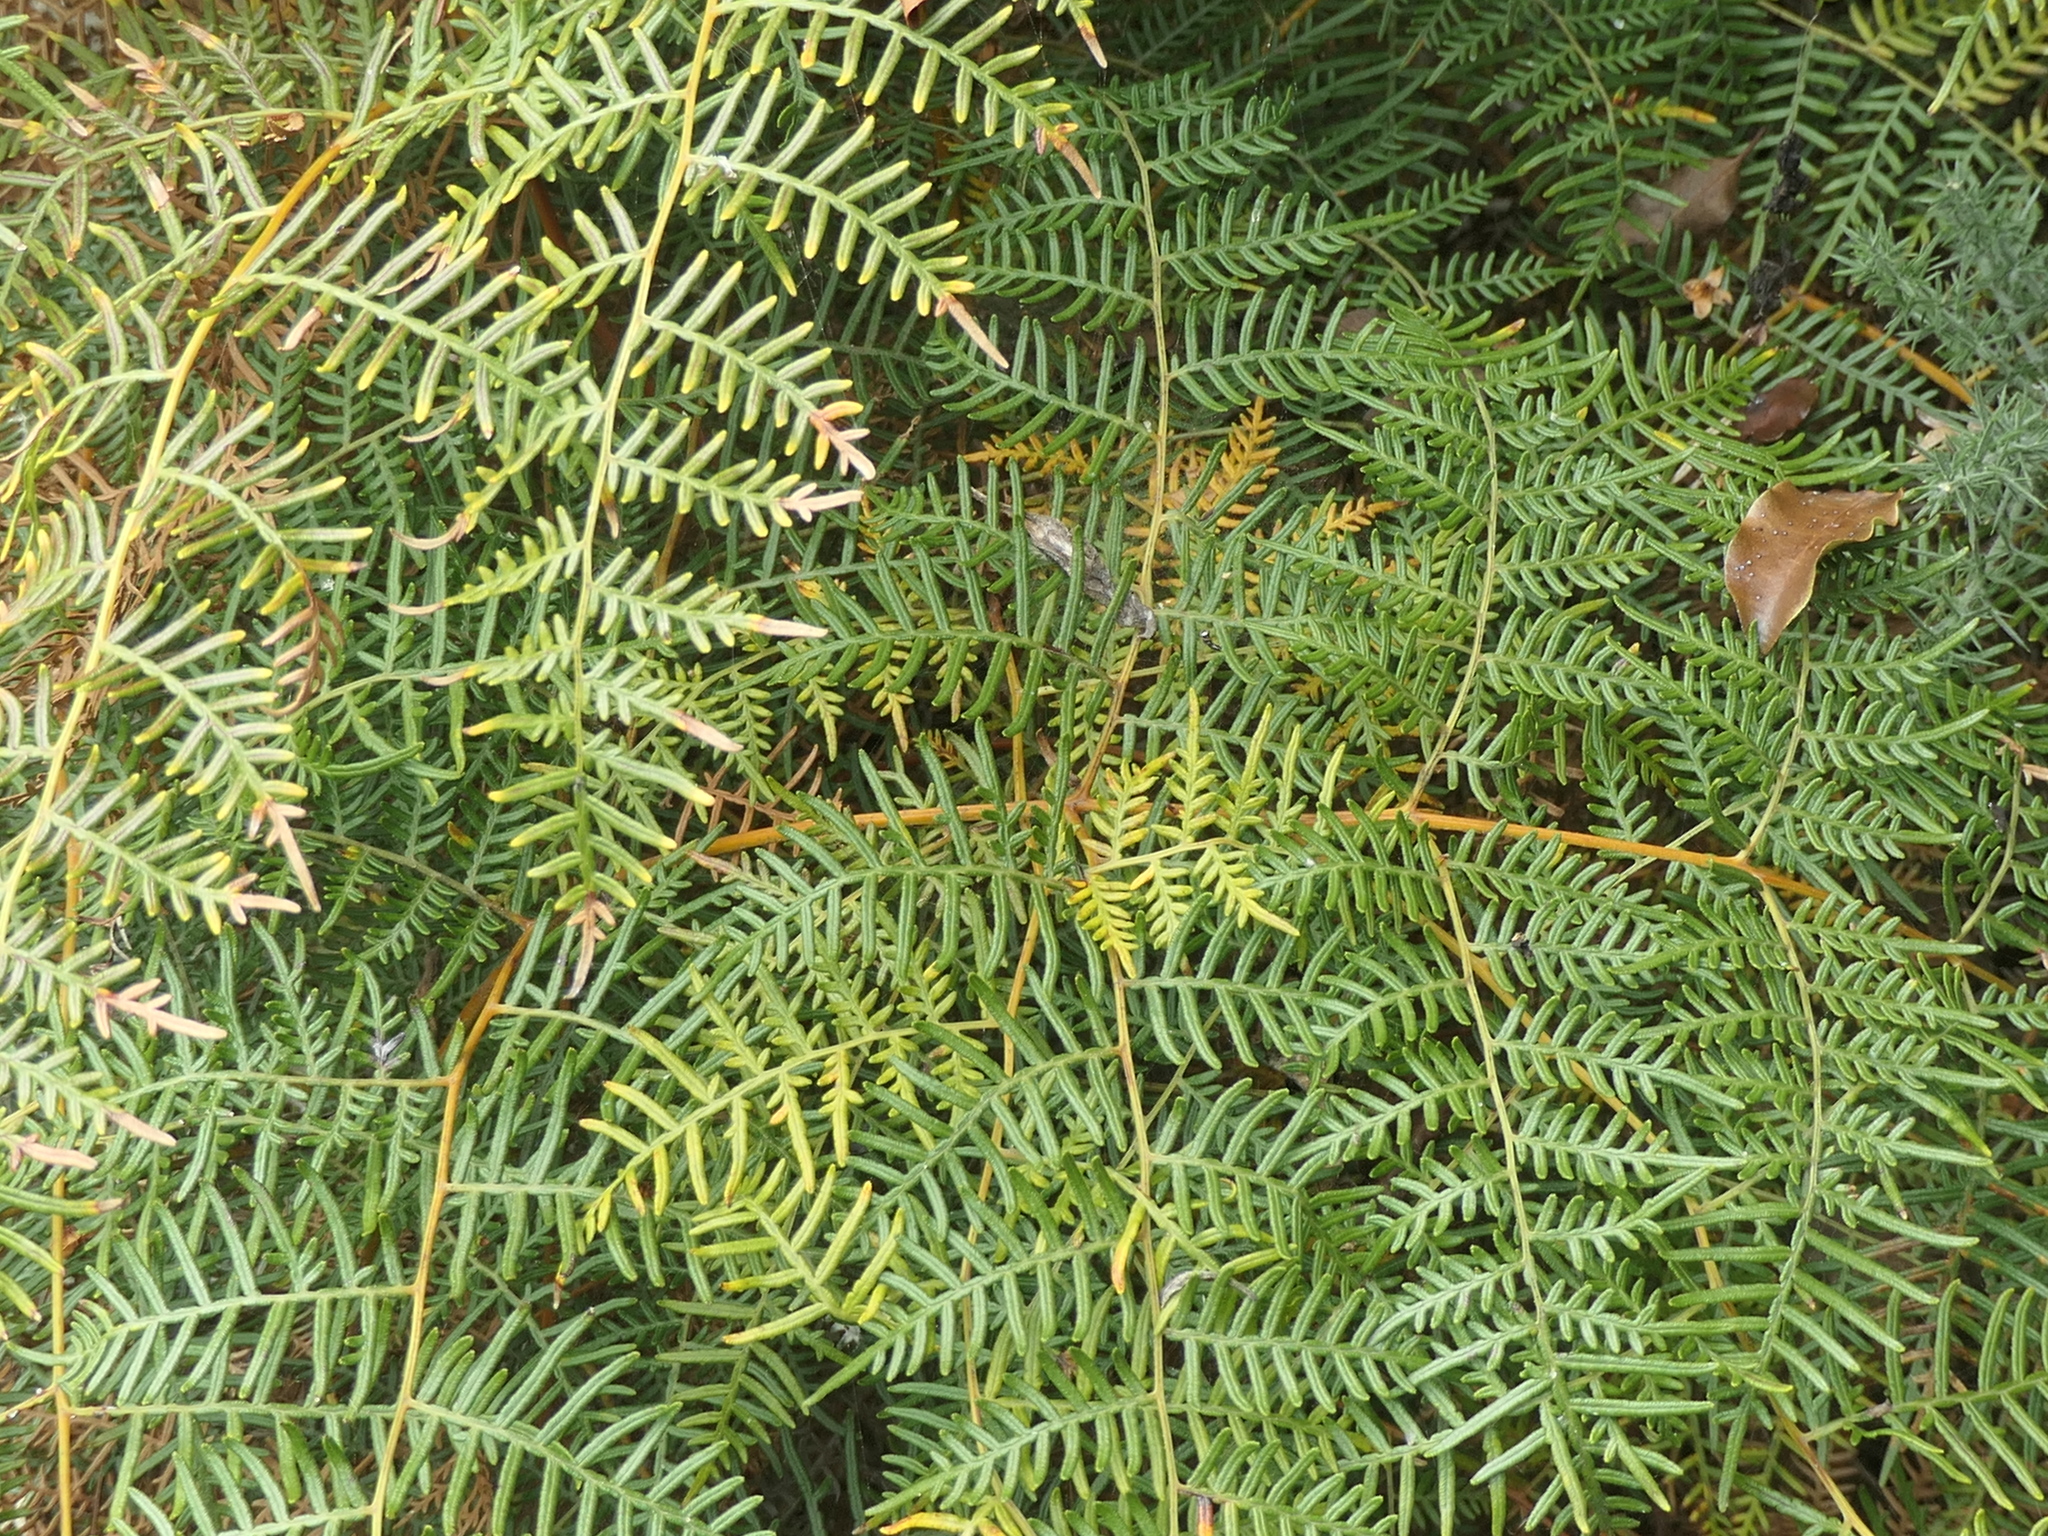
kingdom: Plantae
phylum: Tracheophyta
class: Polypodiopsida
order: Polypodiales
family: Dennstaedtiaceae
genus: Pteridium
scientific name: Pteridium esculentum
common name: Bracken fern
